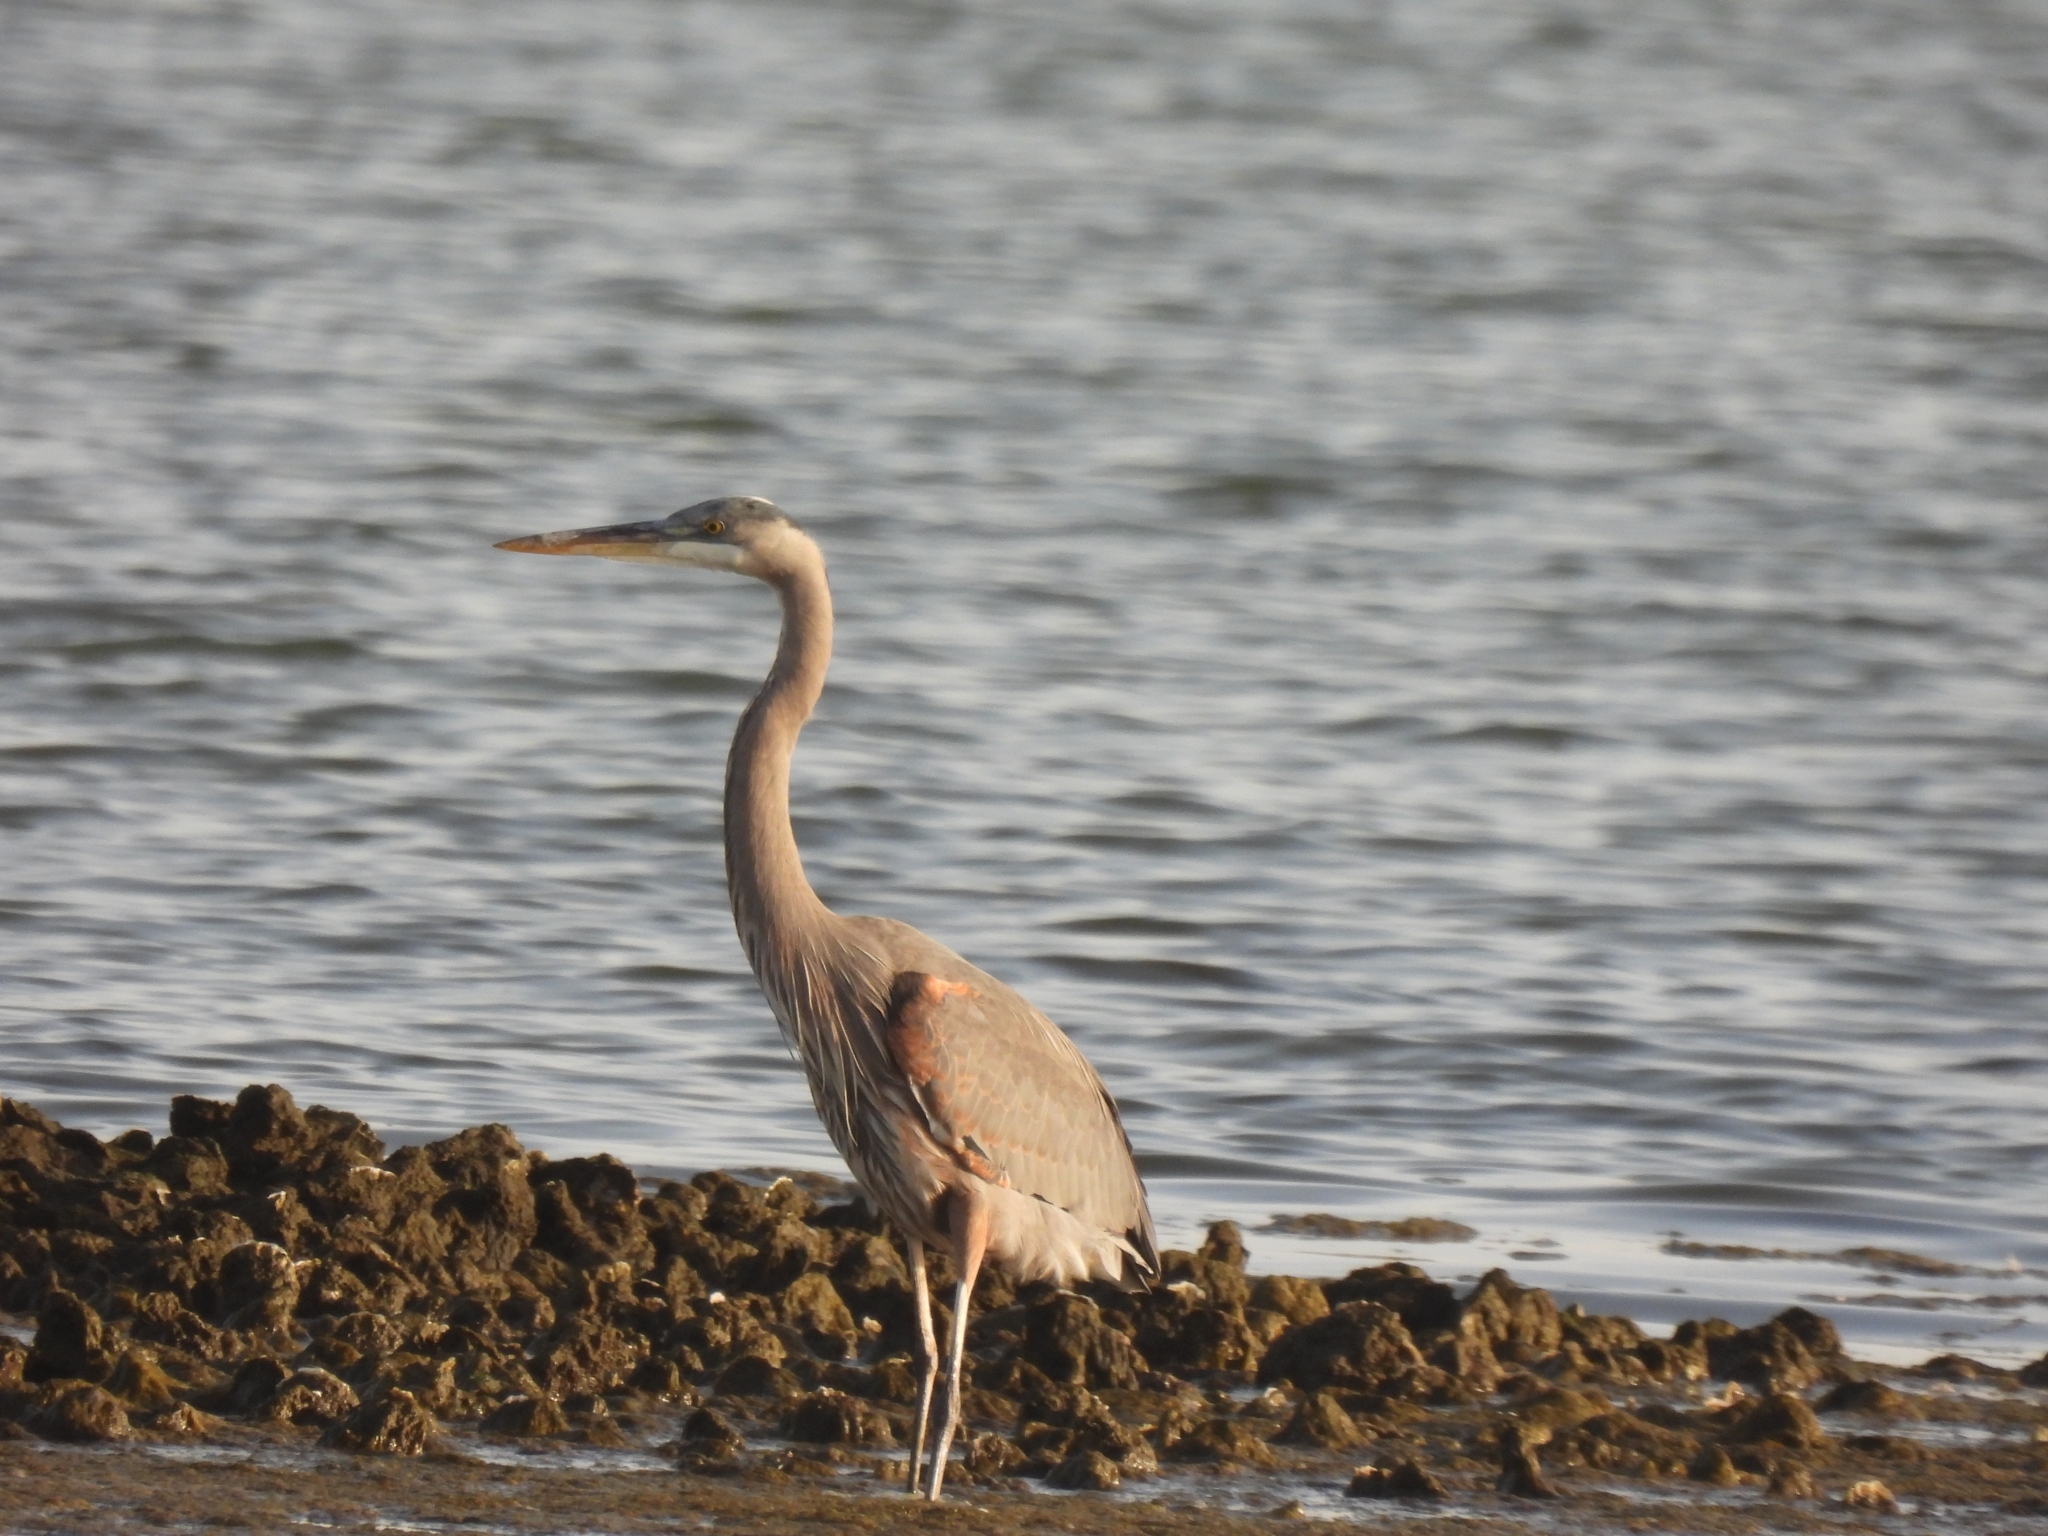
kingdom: Animalia
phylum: Chordata
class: Aves
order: Pelecaniformes
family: Ardeidae
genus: Ardea
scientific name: Ardea herodias
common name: Great blue heron
